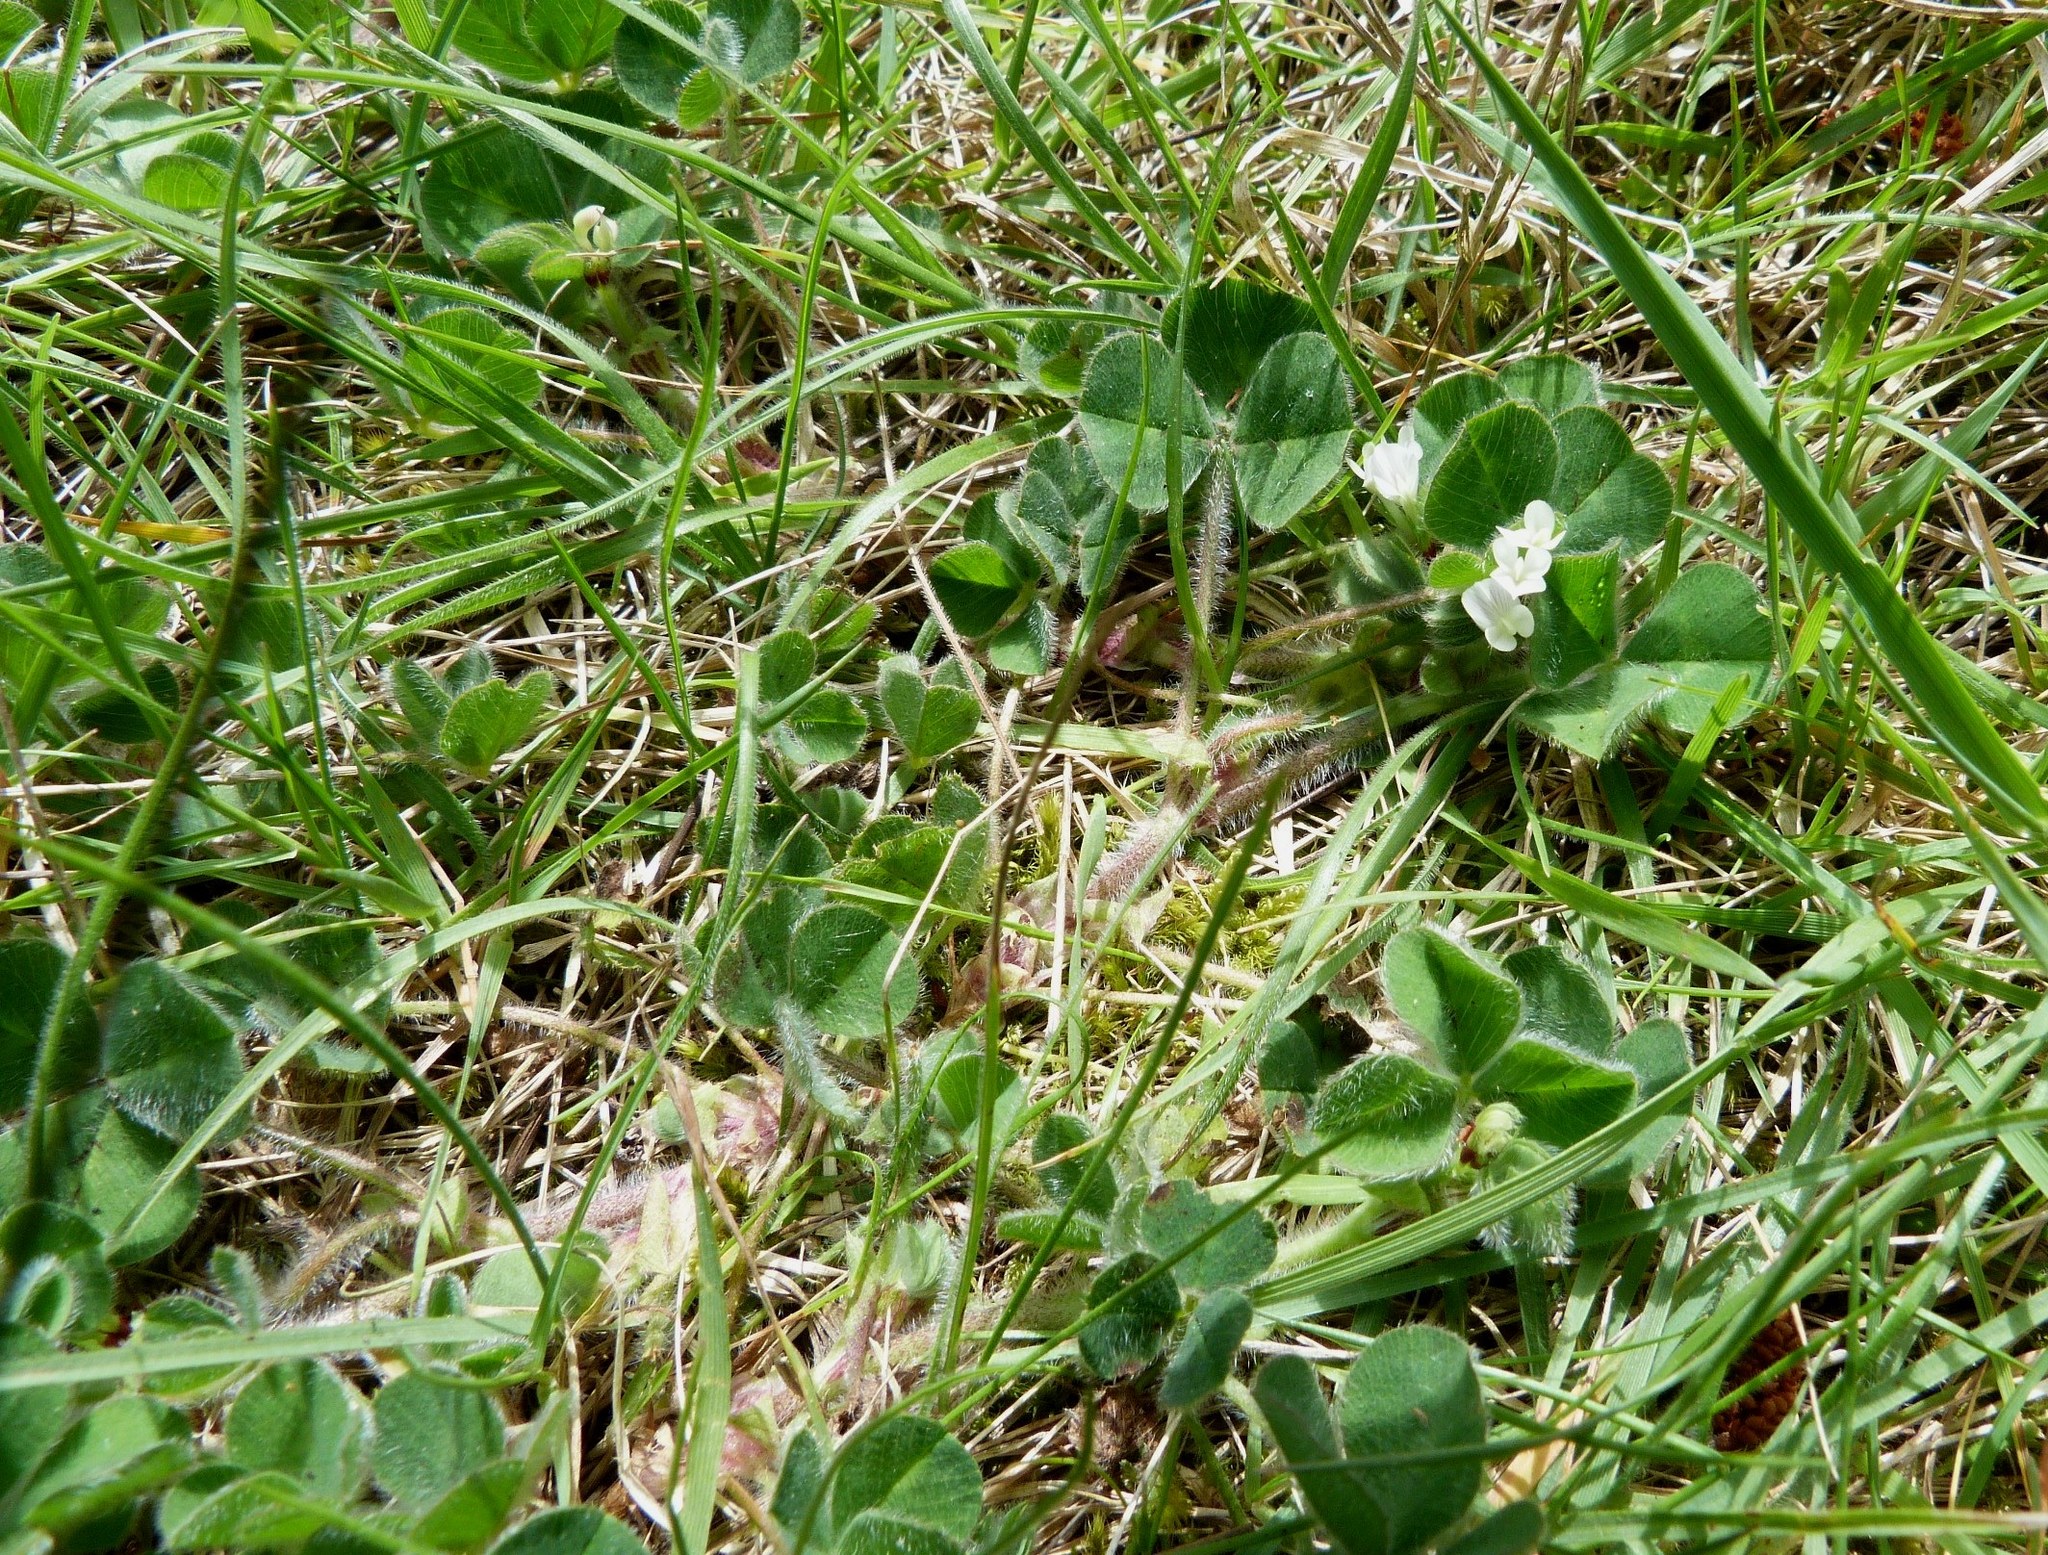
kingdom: Plantae
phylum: Tracheophyta
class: Magnoliopsida
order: Fabales
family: Fabaceae
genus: Trifolium
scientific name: Trifolium subterraneum
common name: Subterranean clover
